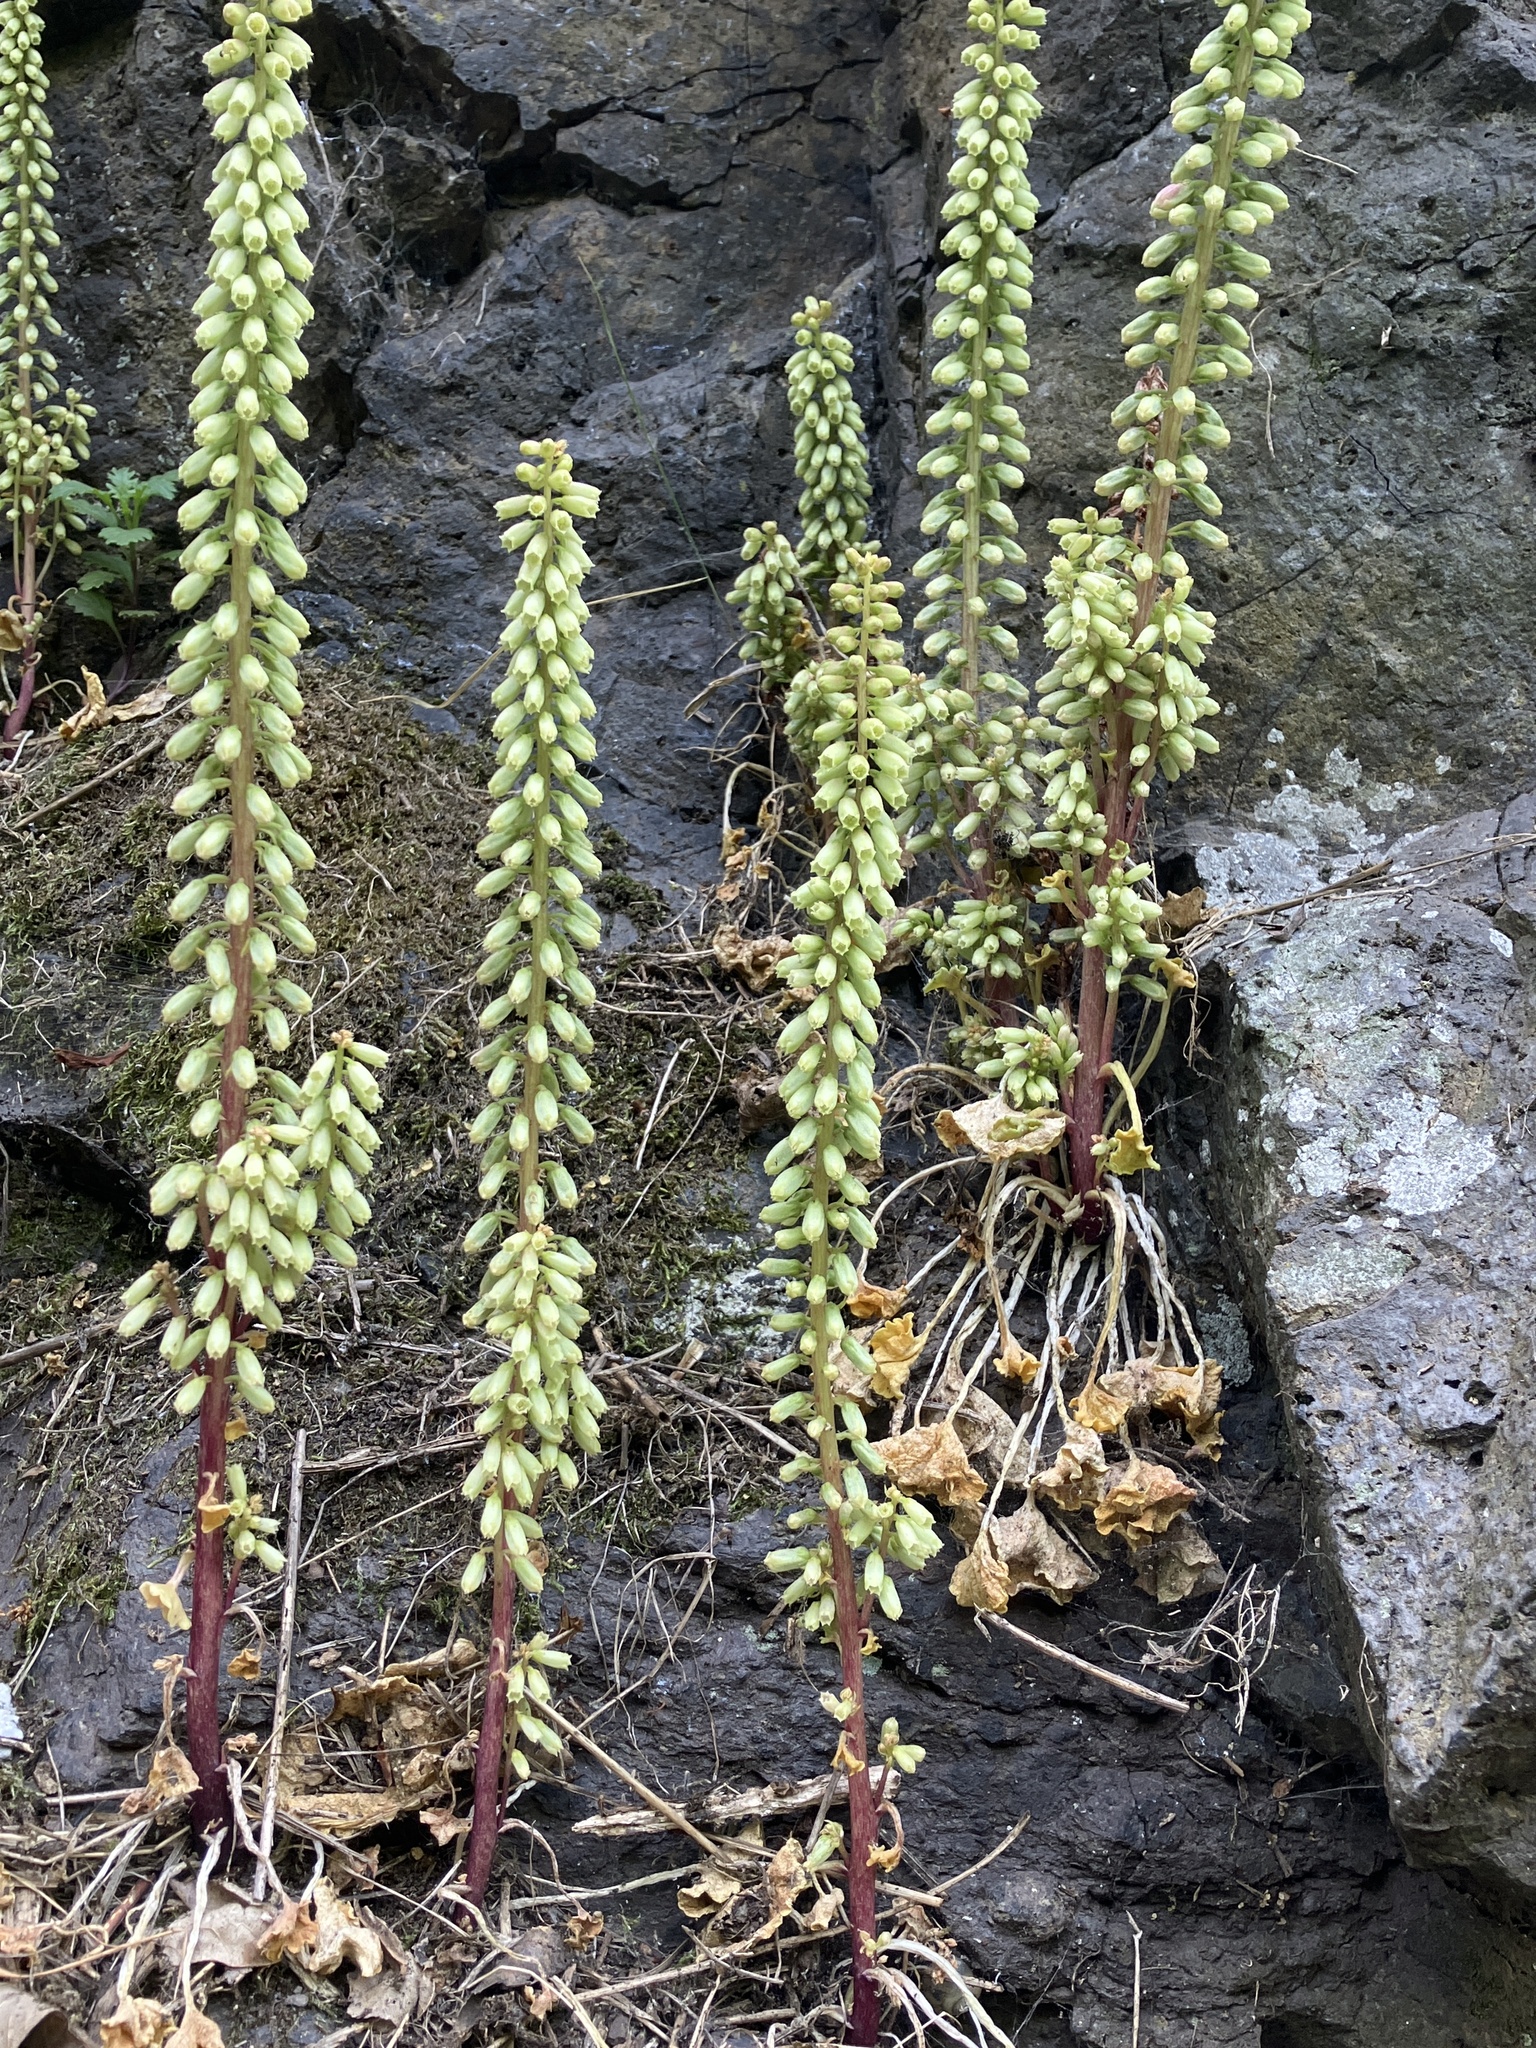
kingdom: Plantae
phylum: Tracheophyta
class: Magnoliopsida
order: Saxifragales
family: Crassulaceae
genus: Umbilicus
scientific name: Umbilicus rupestris
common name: Navelwort
